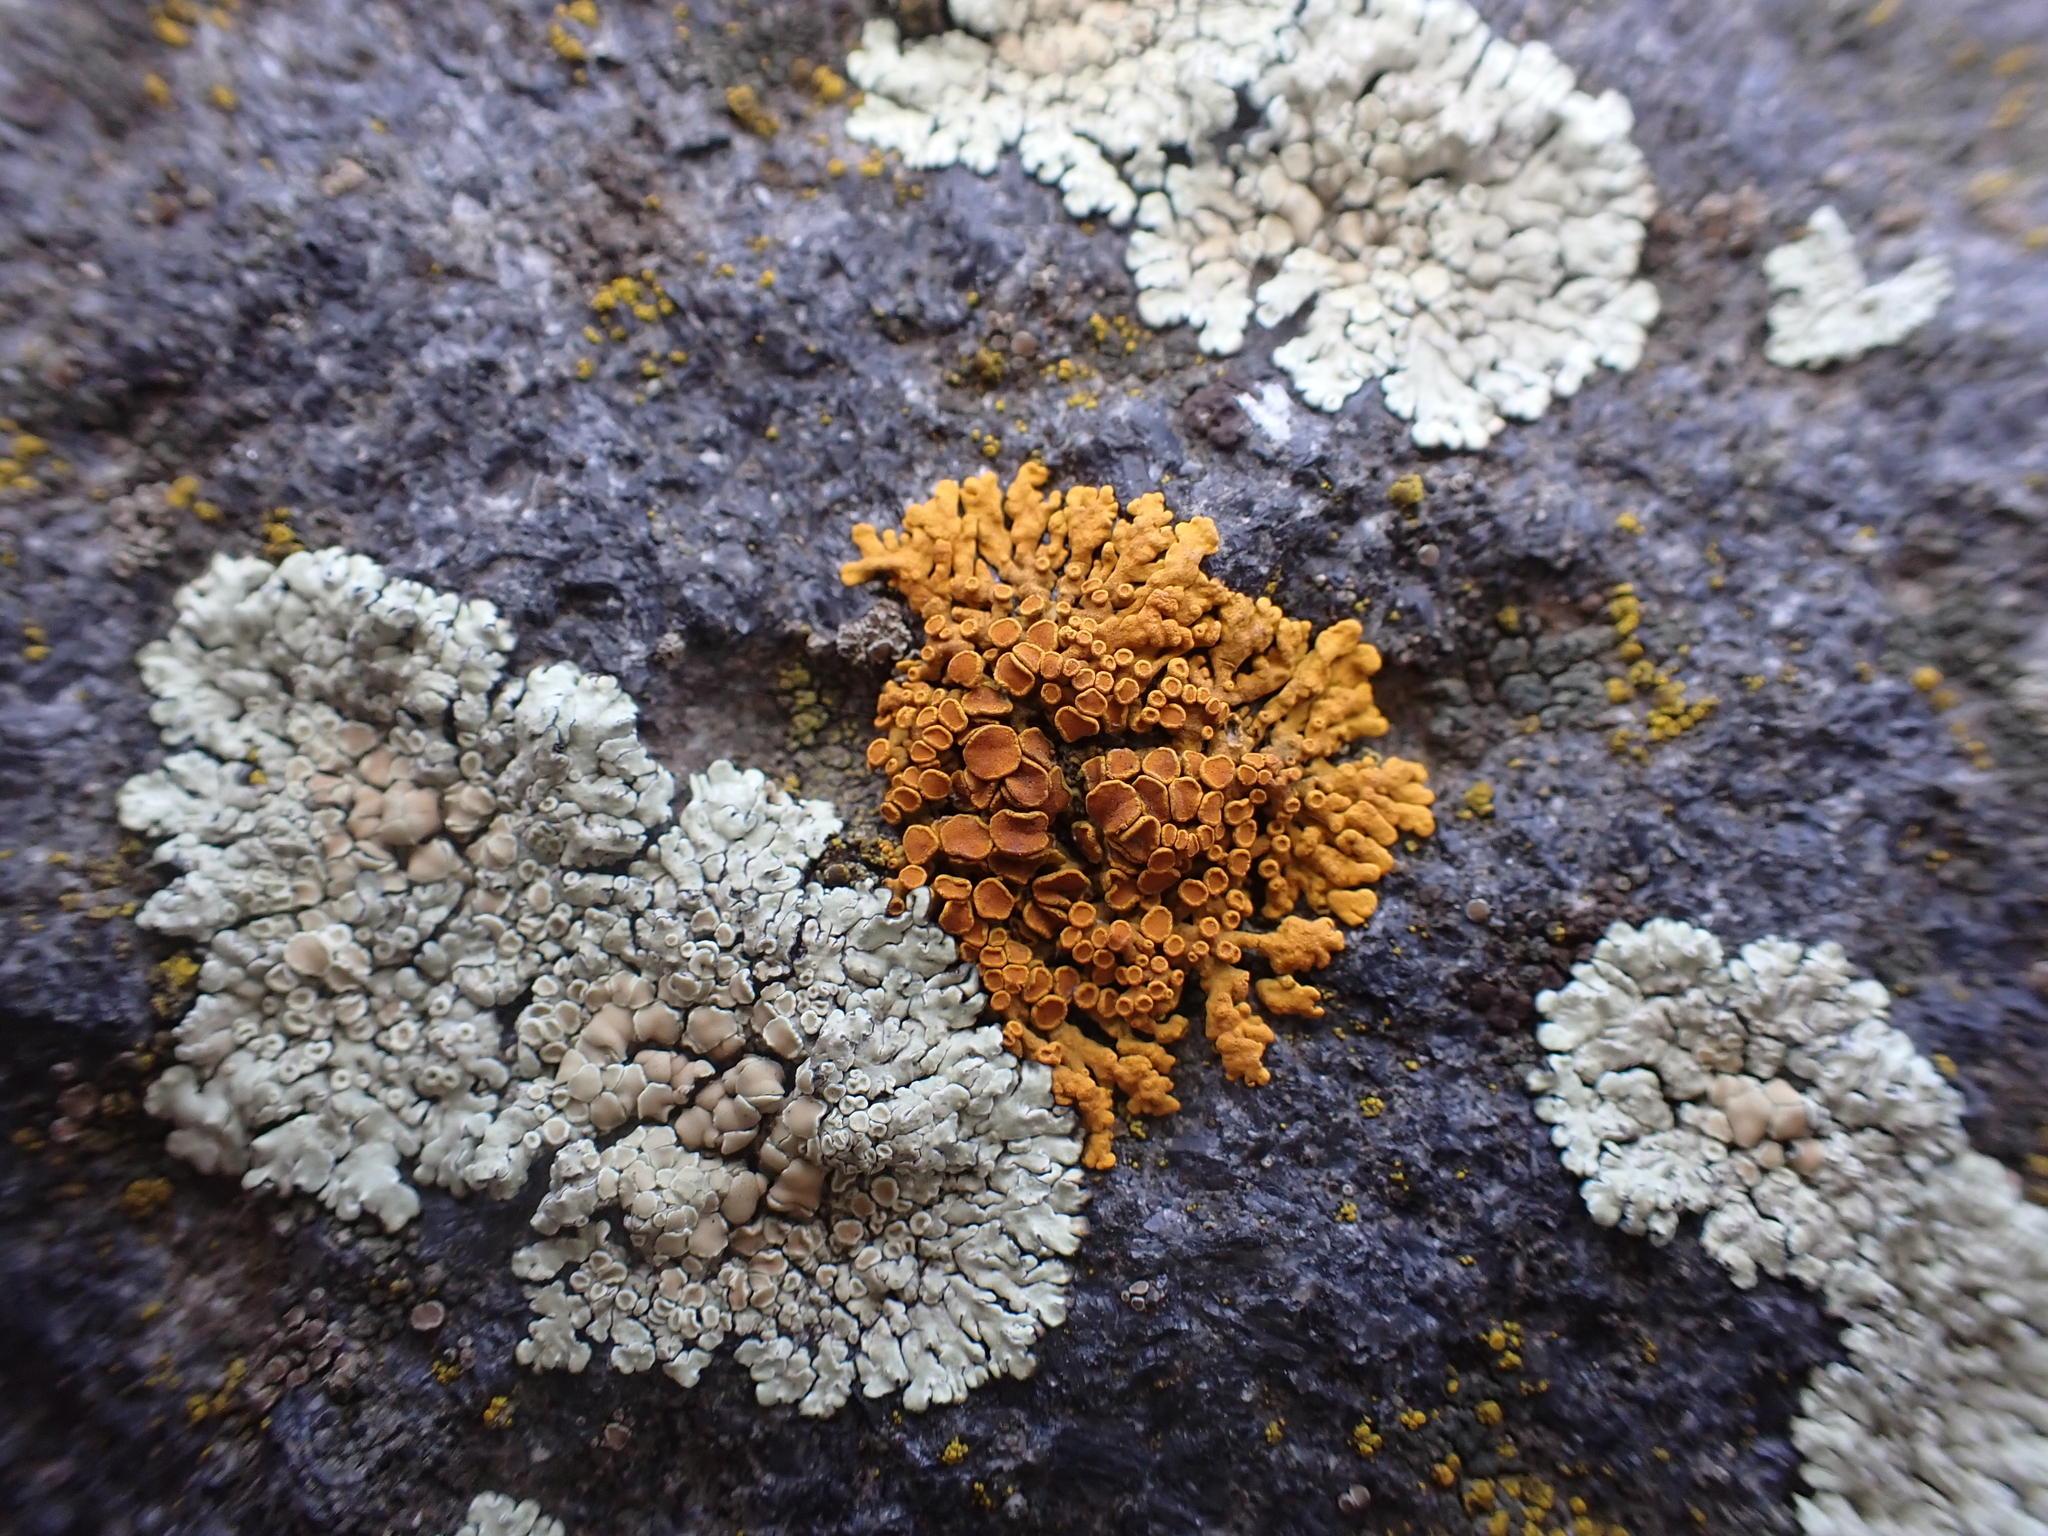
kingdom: Fungi
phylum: Ascomycota
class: Lecanoromycetes
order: Teloschistales
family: Teloschistaceae
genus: Xanthoria
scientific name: Xanthoria elegans
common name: Elegant sunburst lichen
